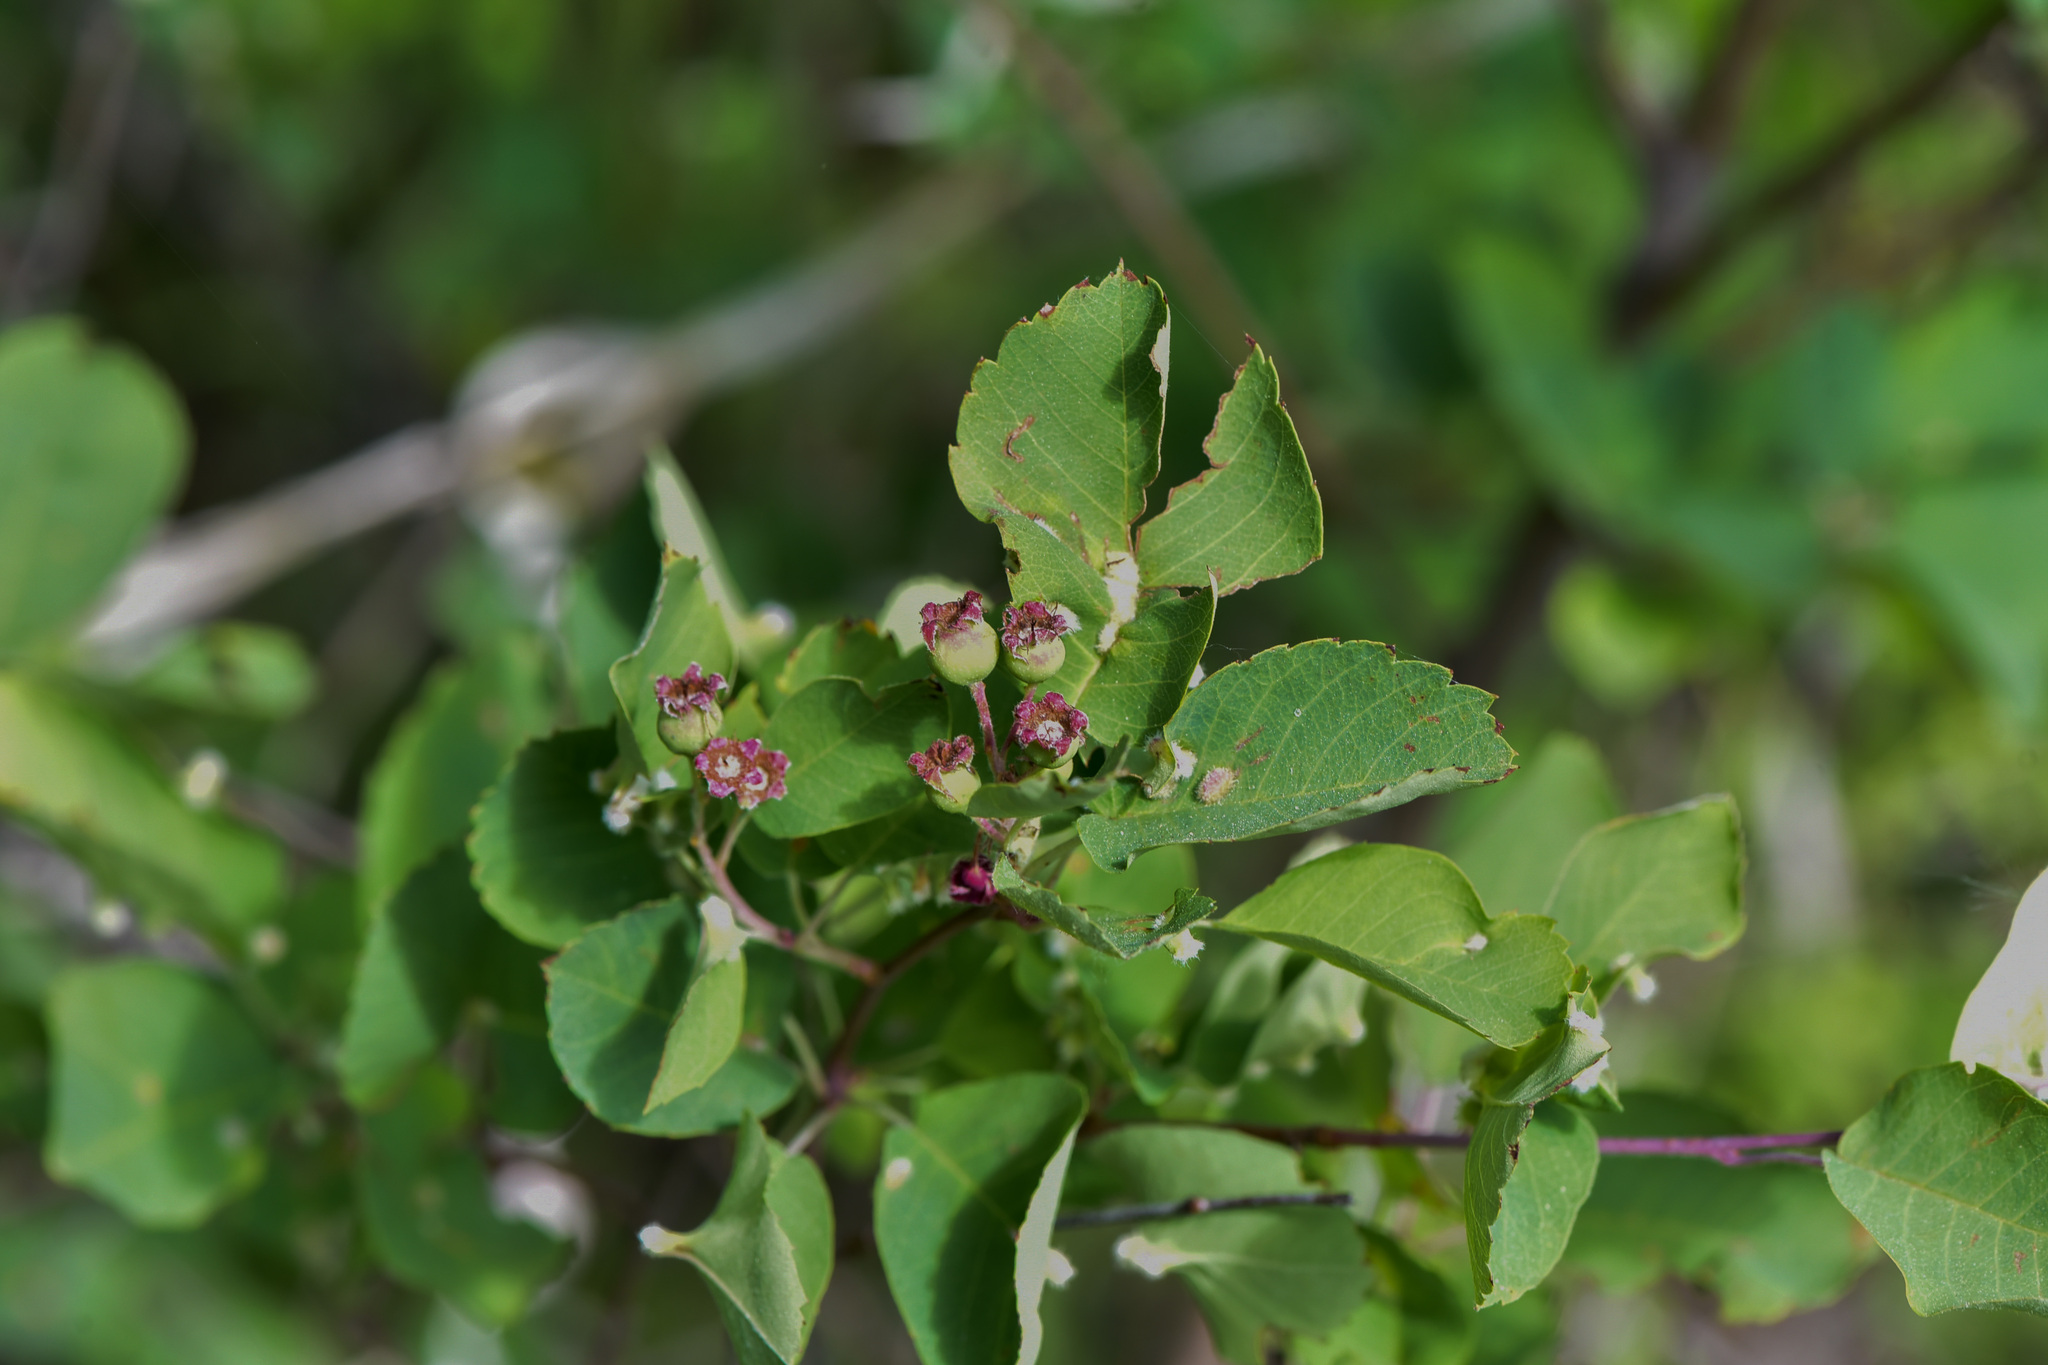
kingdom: Plantae
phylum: Tracheophyta
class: Magnoliopsida
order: Rosales
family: Rosaceae
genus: Amelanchier
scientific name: Amelanchier alnifolia
